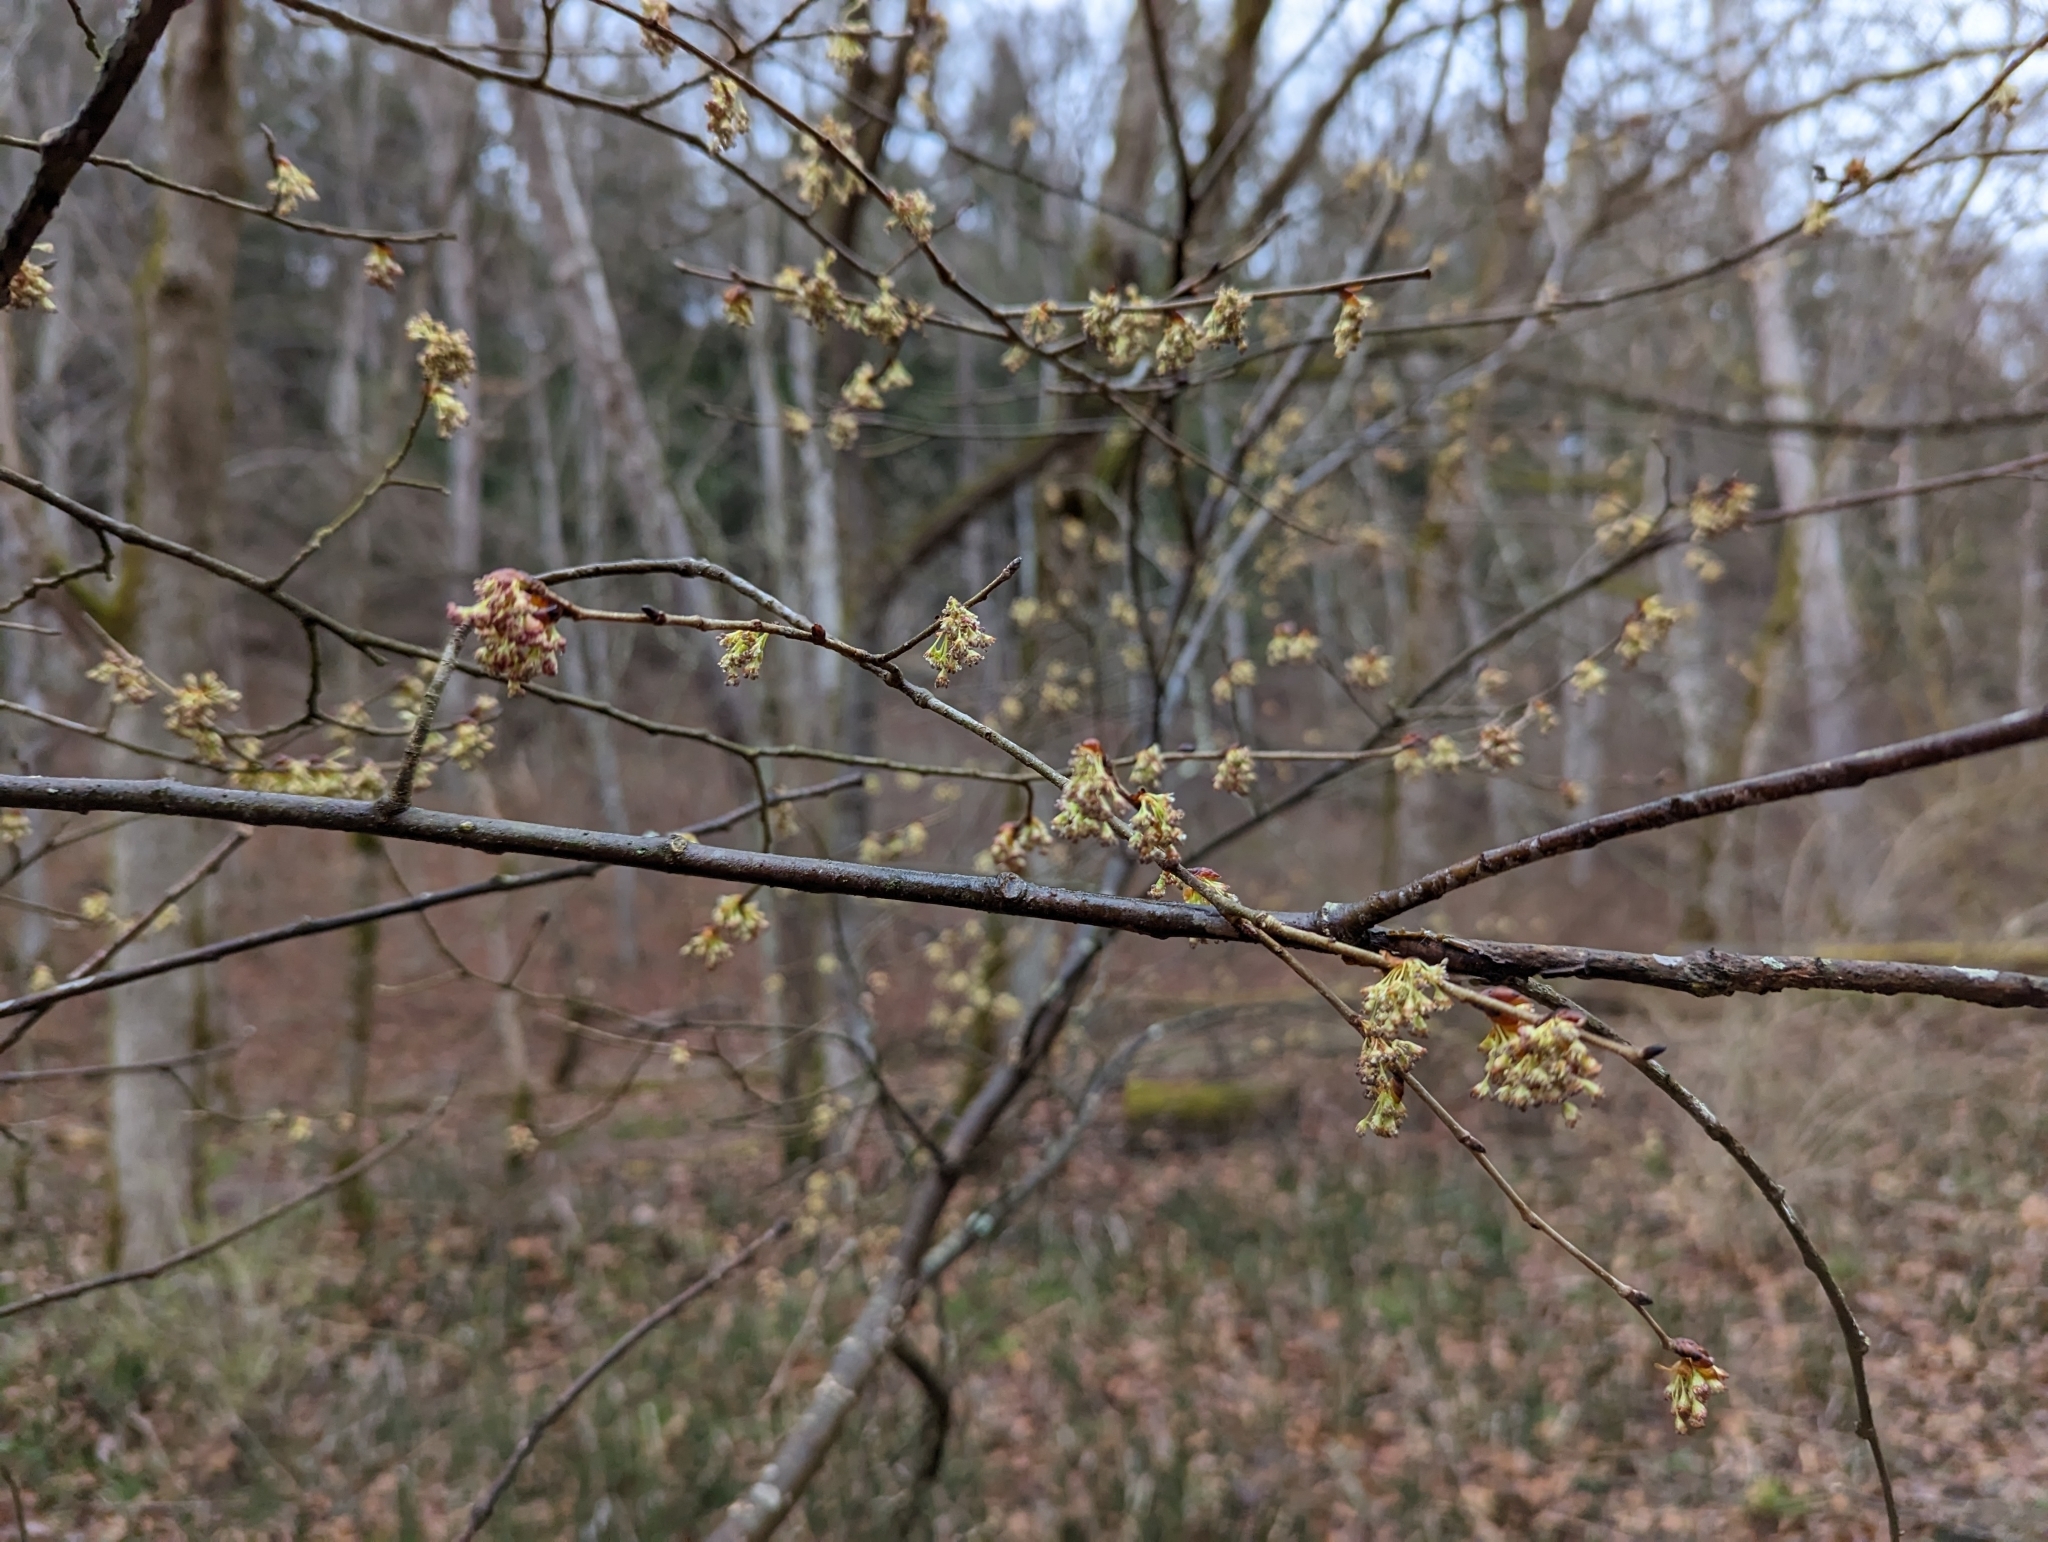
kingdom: Plantae
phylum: Tracheophyta
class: Magnoliopsida
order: Rosales
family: Ulmaceae
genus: Ulmus
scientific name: Ulmus rubra
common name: Slippery elm
